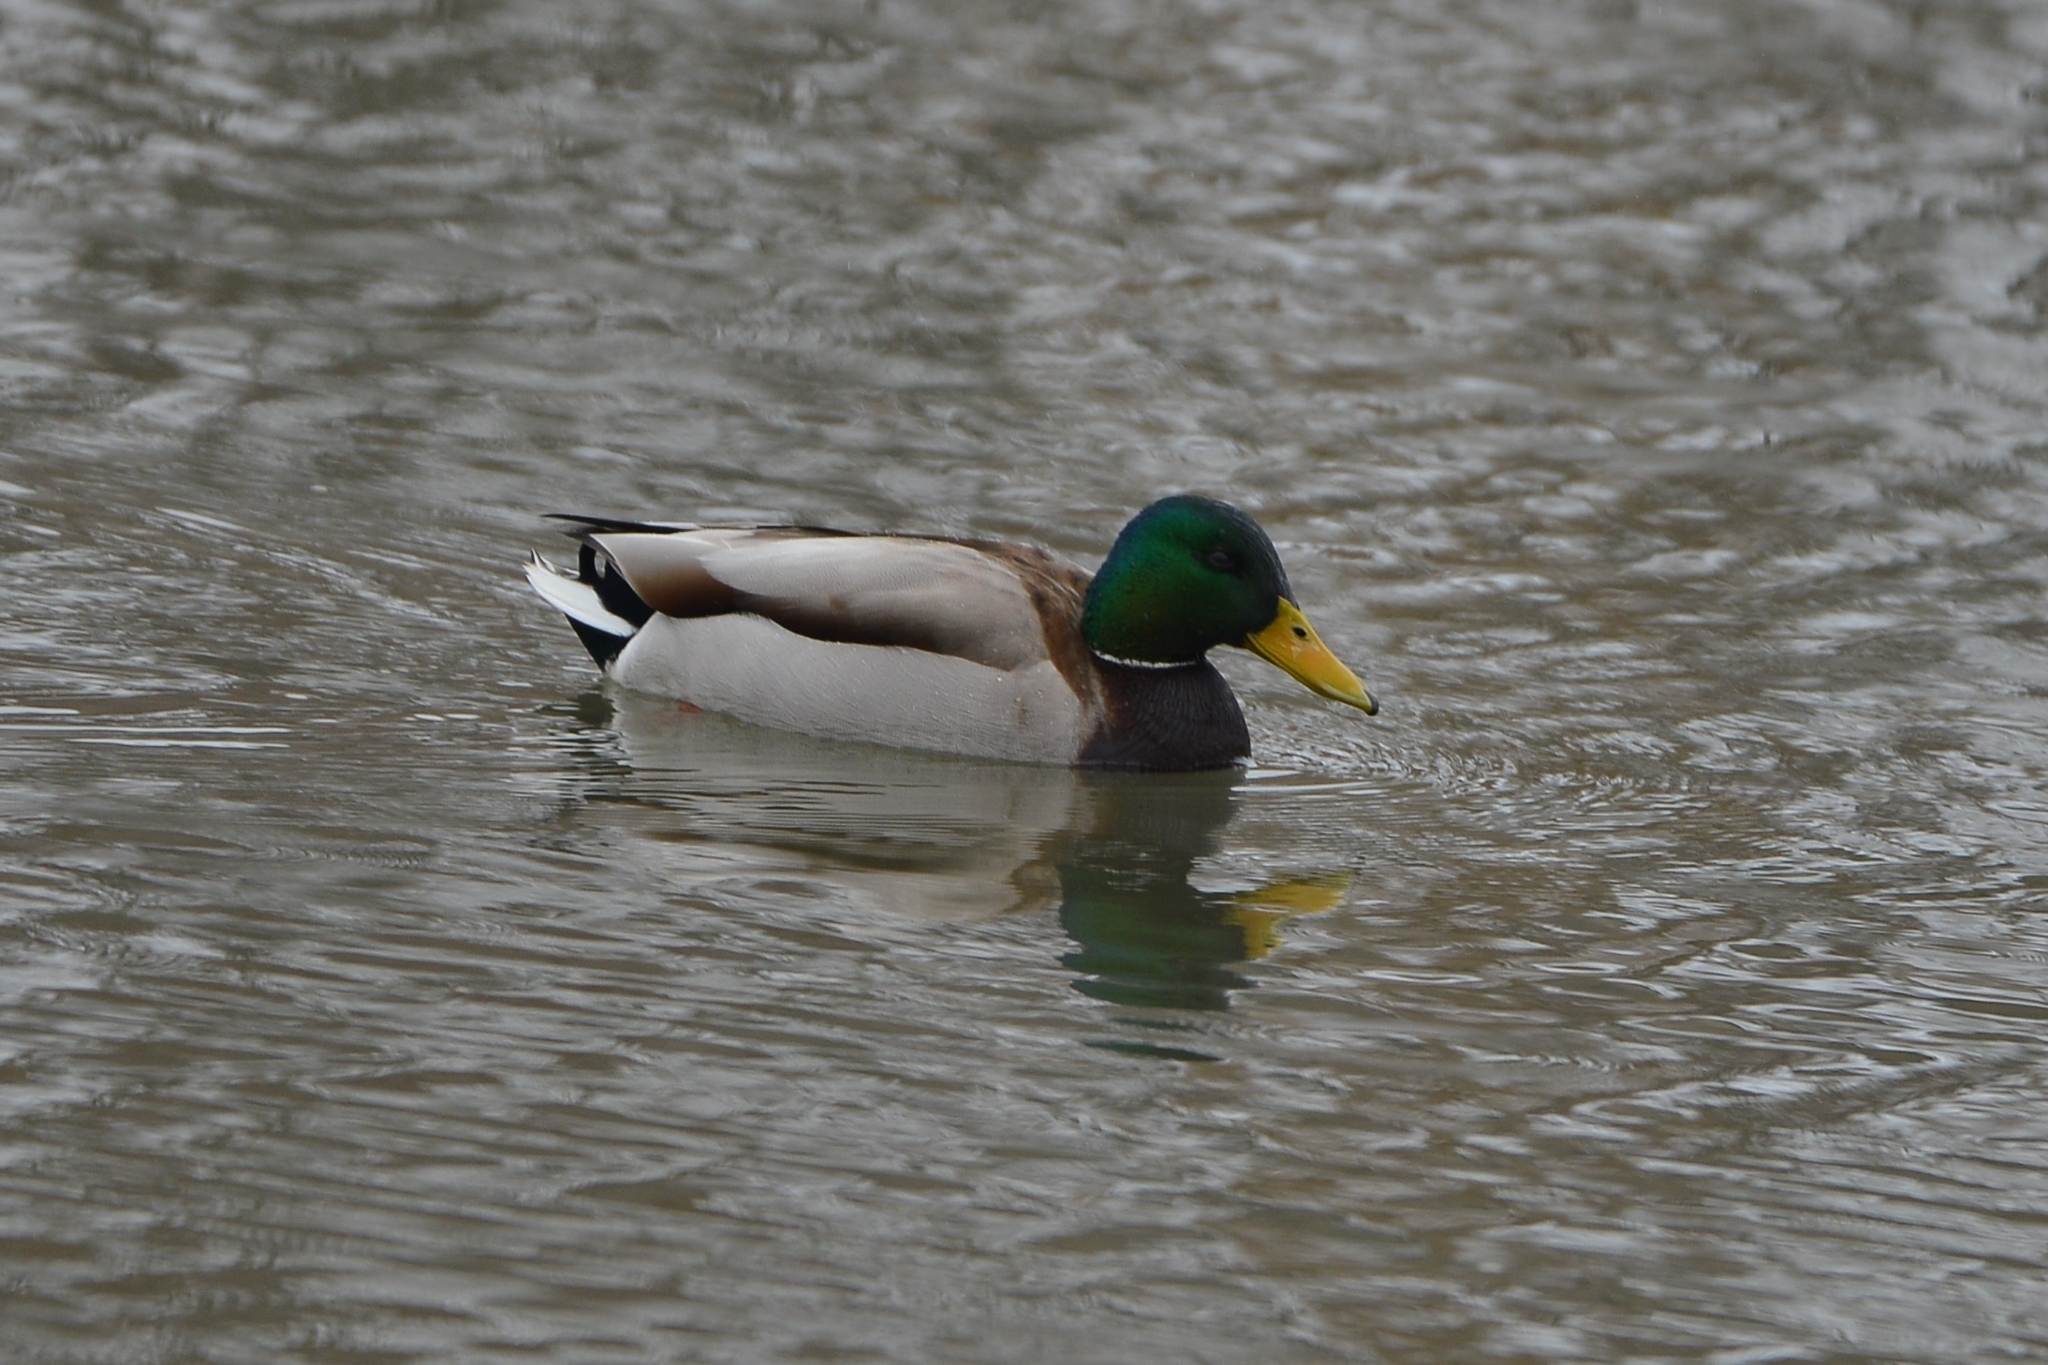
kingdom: Animalia
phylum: Chordata
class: Aves
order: Anseriformes
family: Anatidae
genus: Anas
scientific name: Anas platyrhynchos
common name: Mallard
